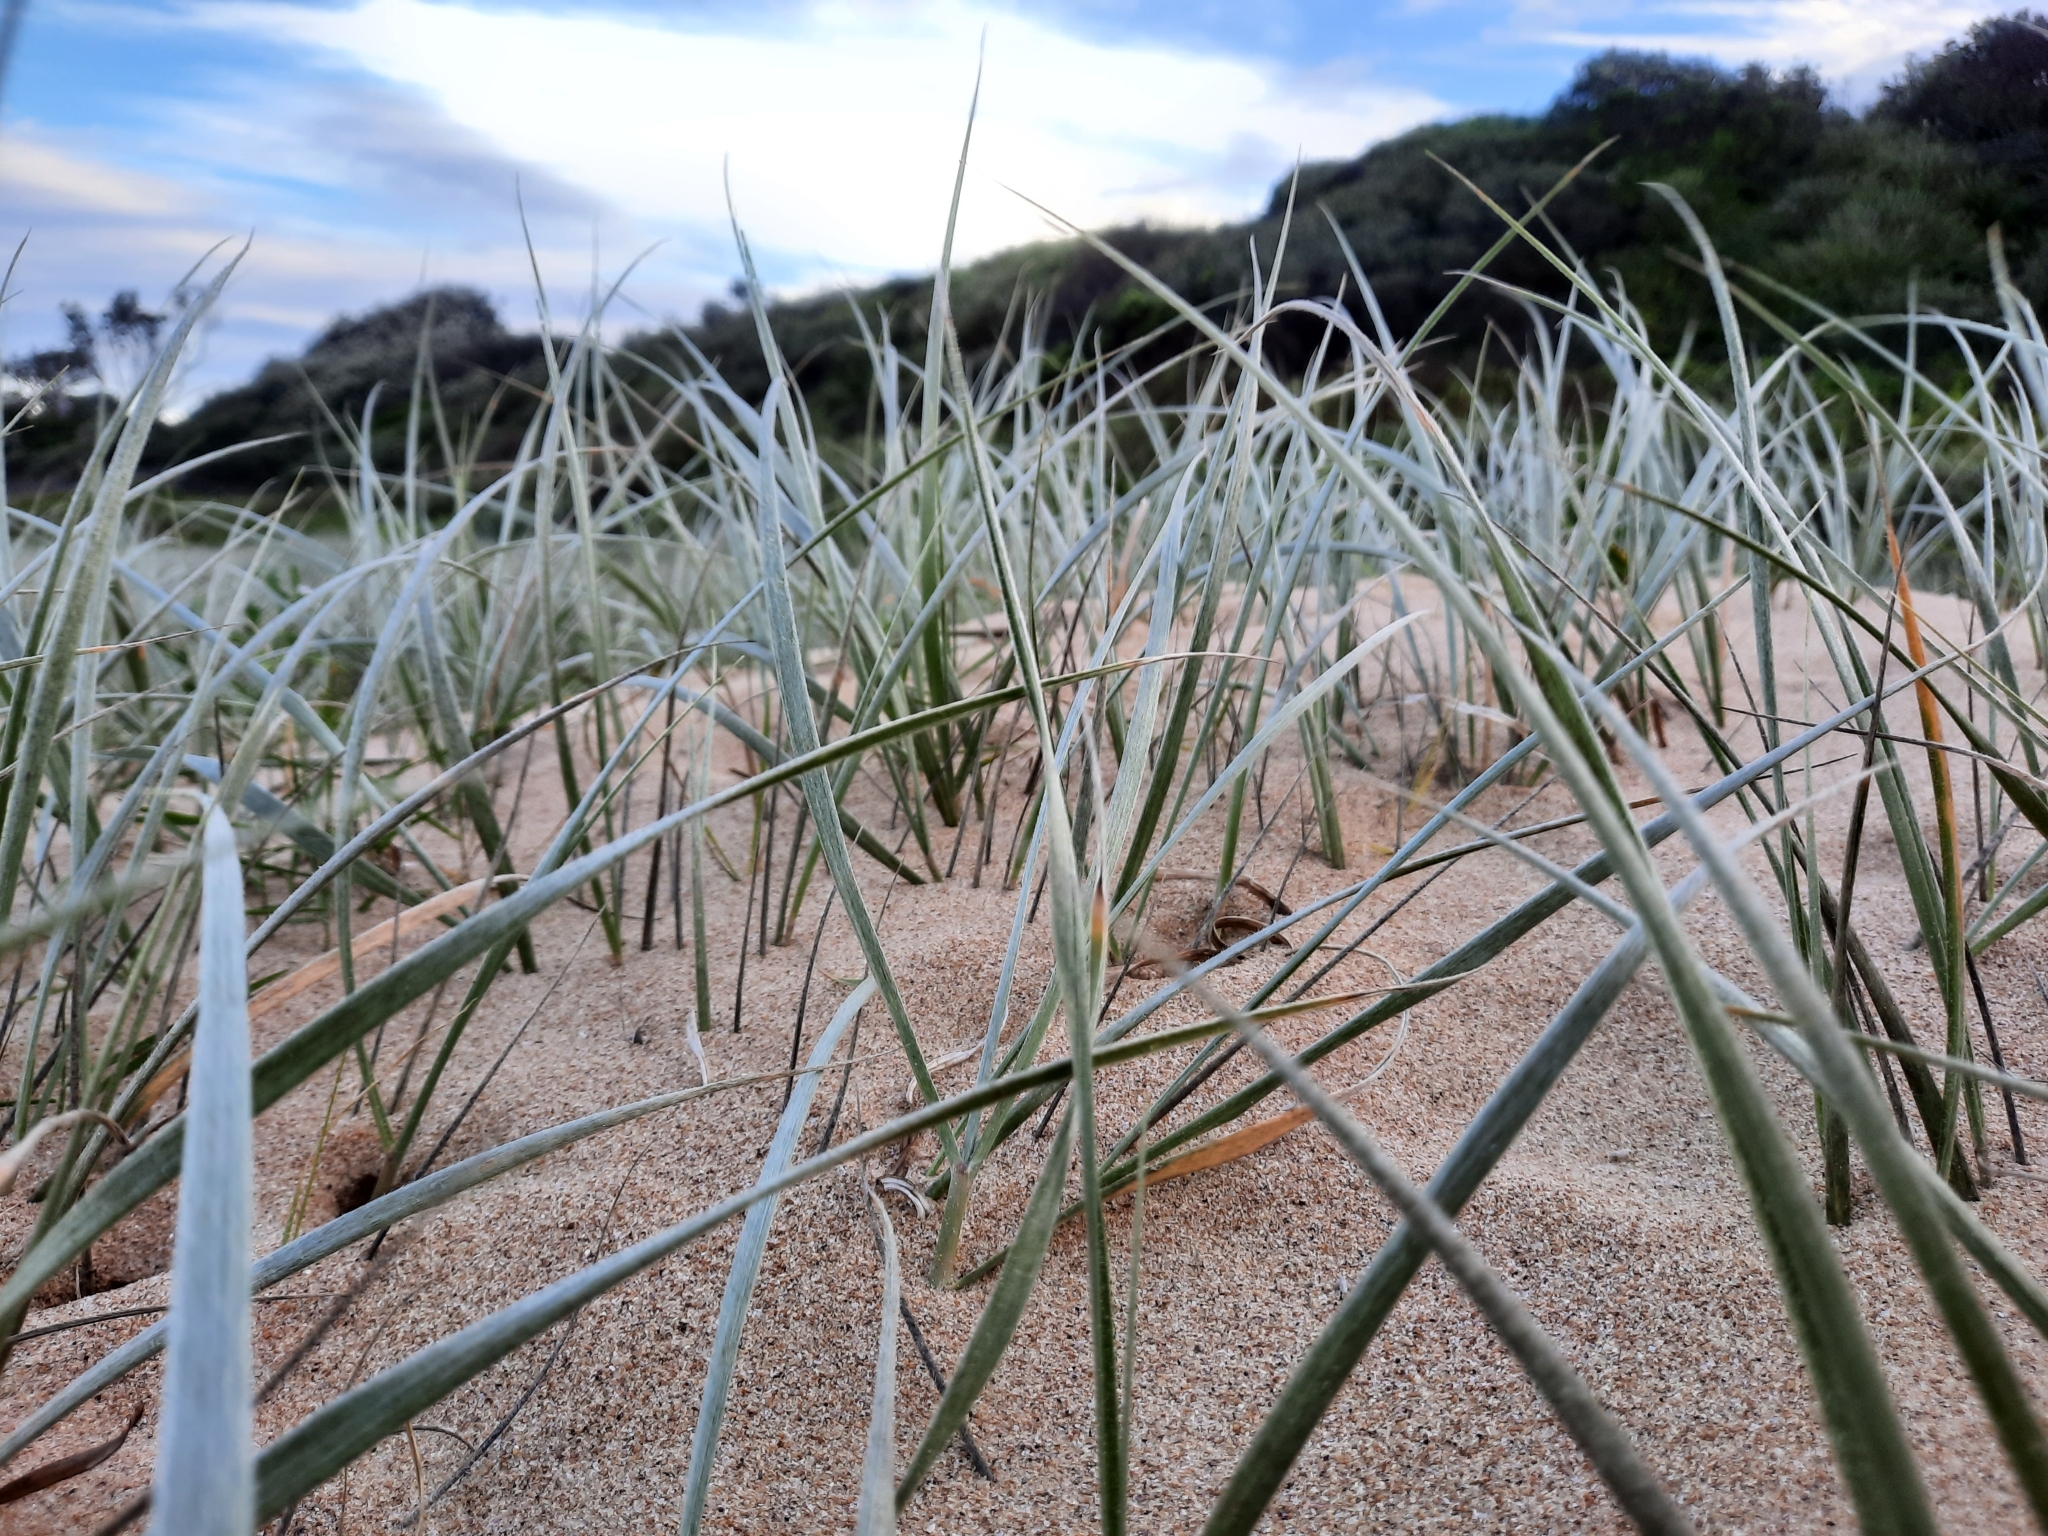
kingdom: Plantae
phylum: Tracheophyta
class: Liliopsida
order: Poales
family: Poaceae
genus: Spinifex
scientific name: Spinifex sericeus
